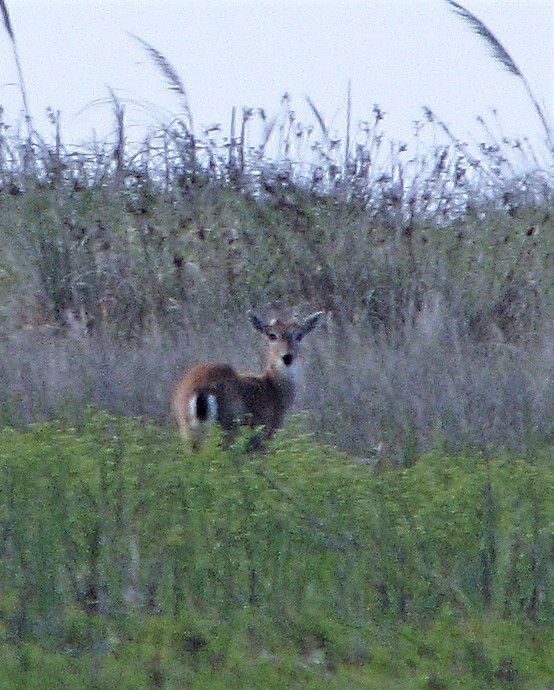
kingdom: Animalia
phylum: Chordata
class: Mammalia
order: Artiodactyla
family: Cervidae
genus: Ozotoceros
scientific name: Ozotoceros bezoarticus
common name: Pampas deer
